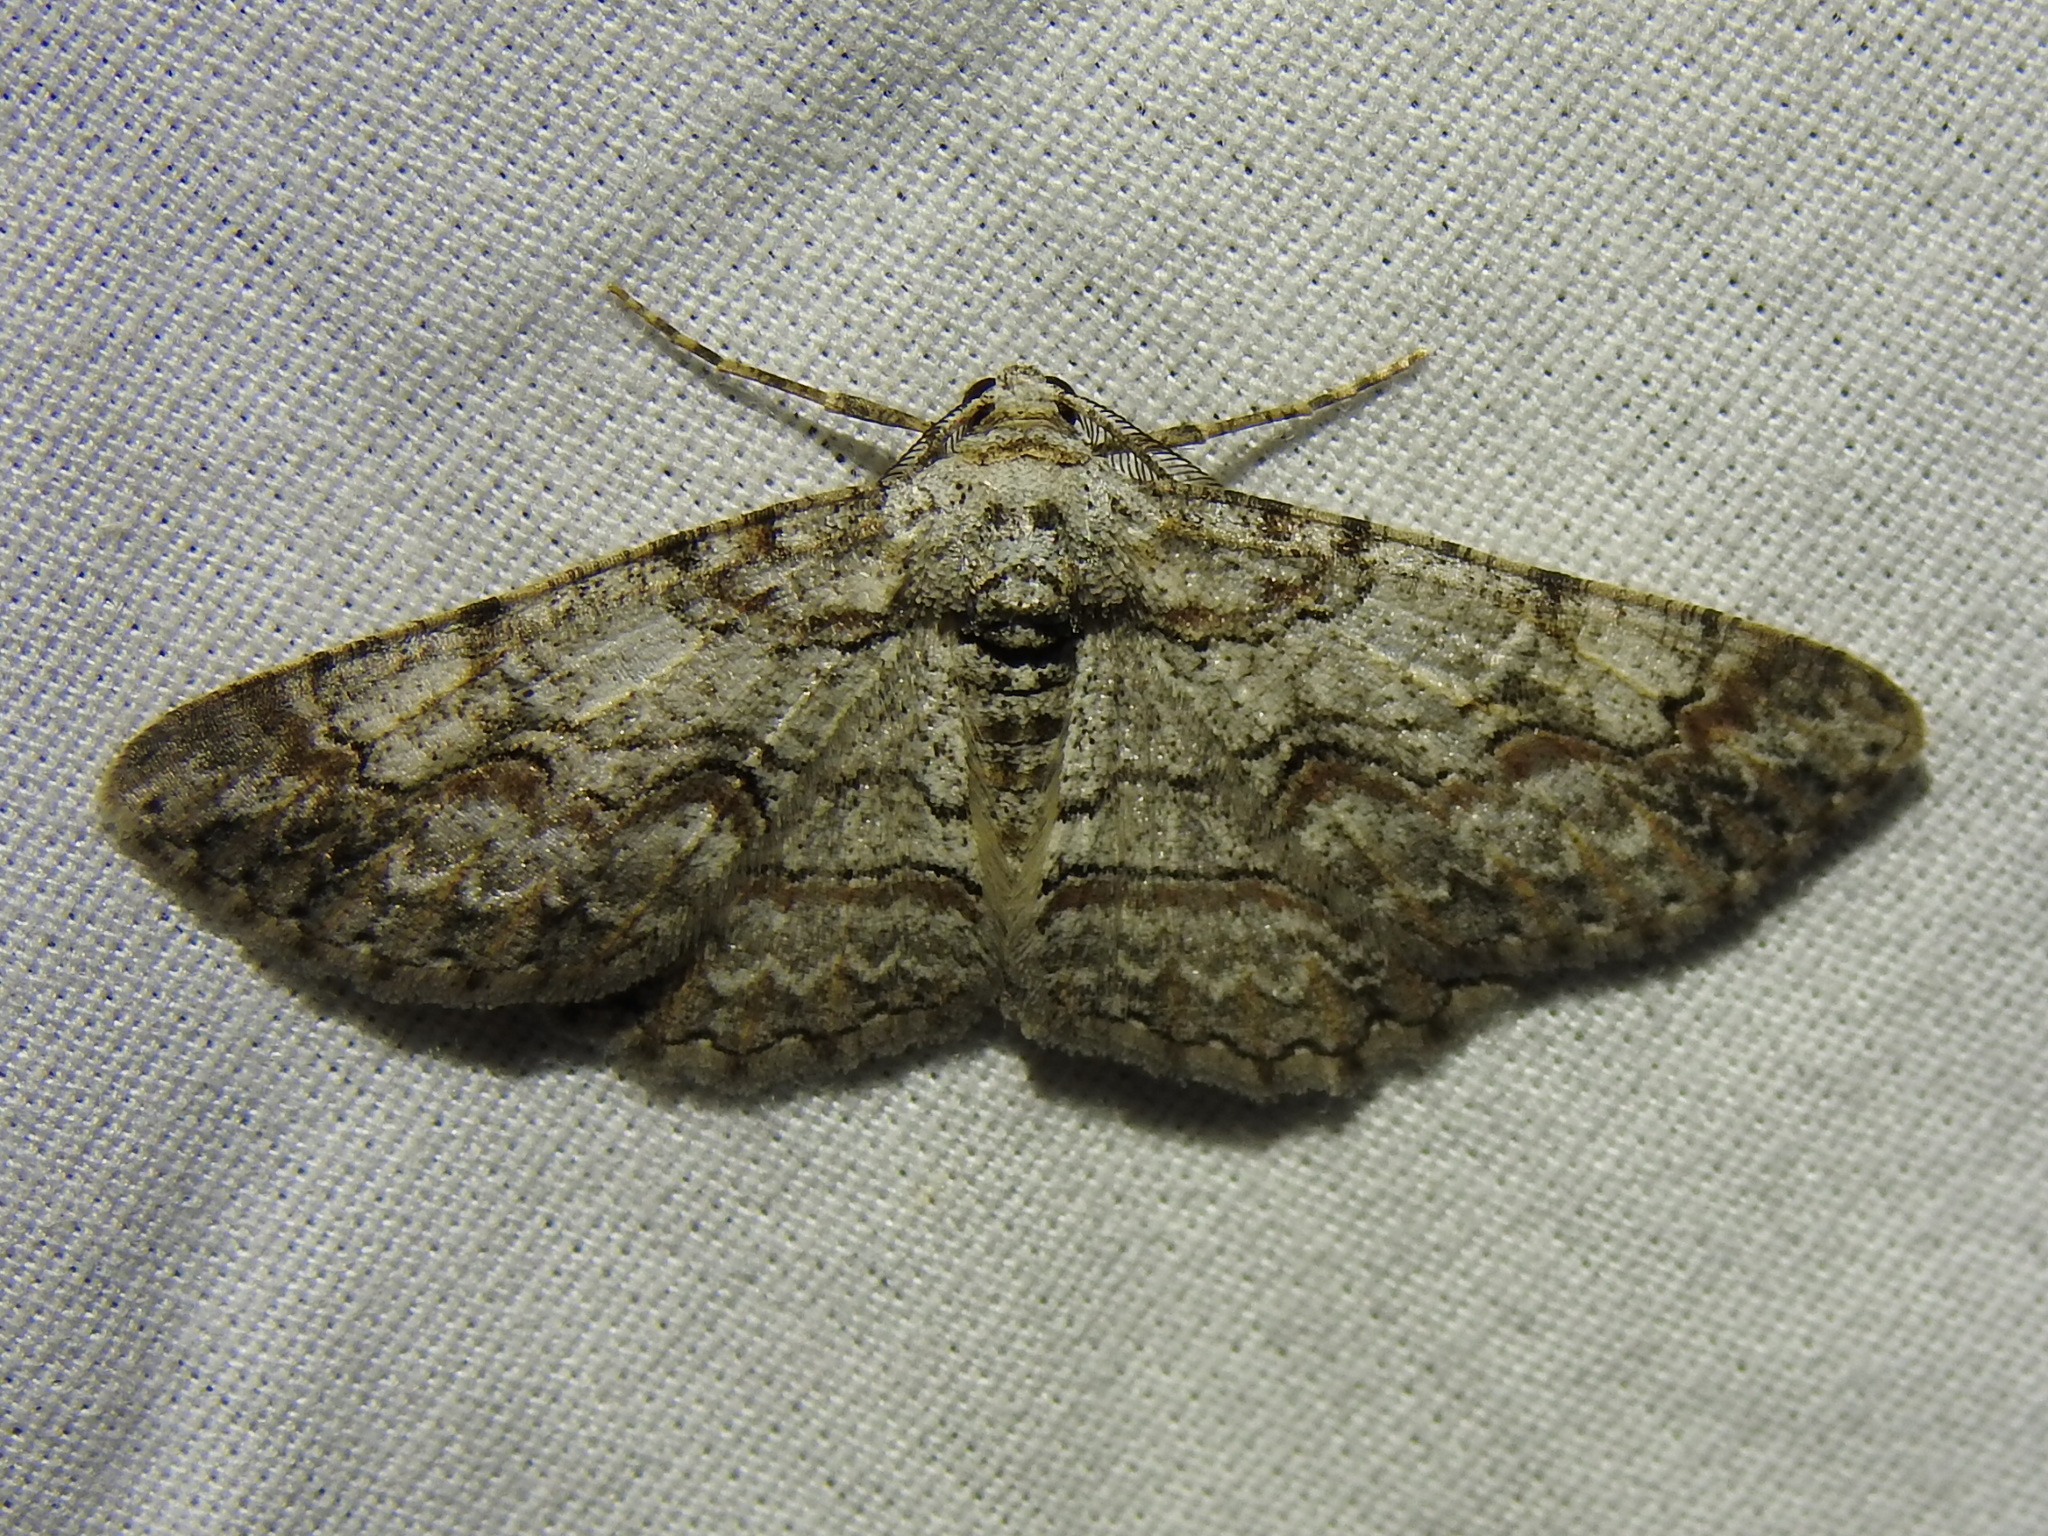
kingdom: Animalia
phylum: Arthropoda
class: Insecta
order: Lepidoptera
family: Geometridae
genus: Iridopsis
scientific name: Iridopsis defectaria
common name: Brown-shaded gray
